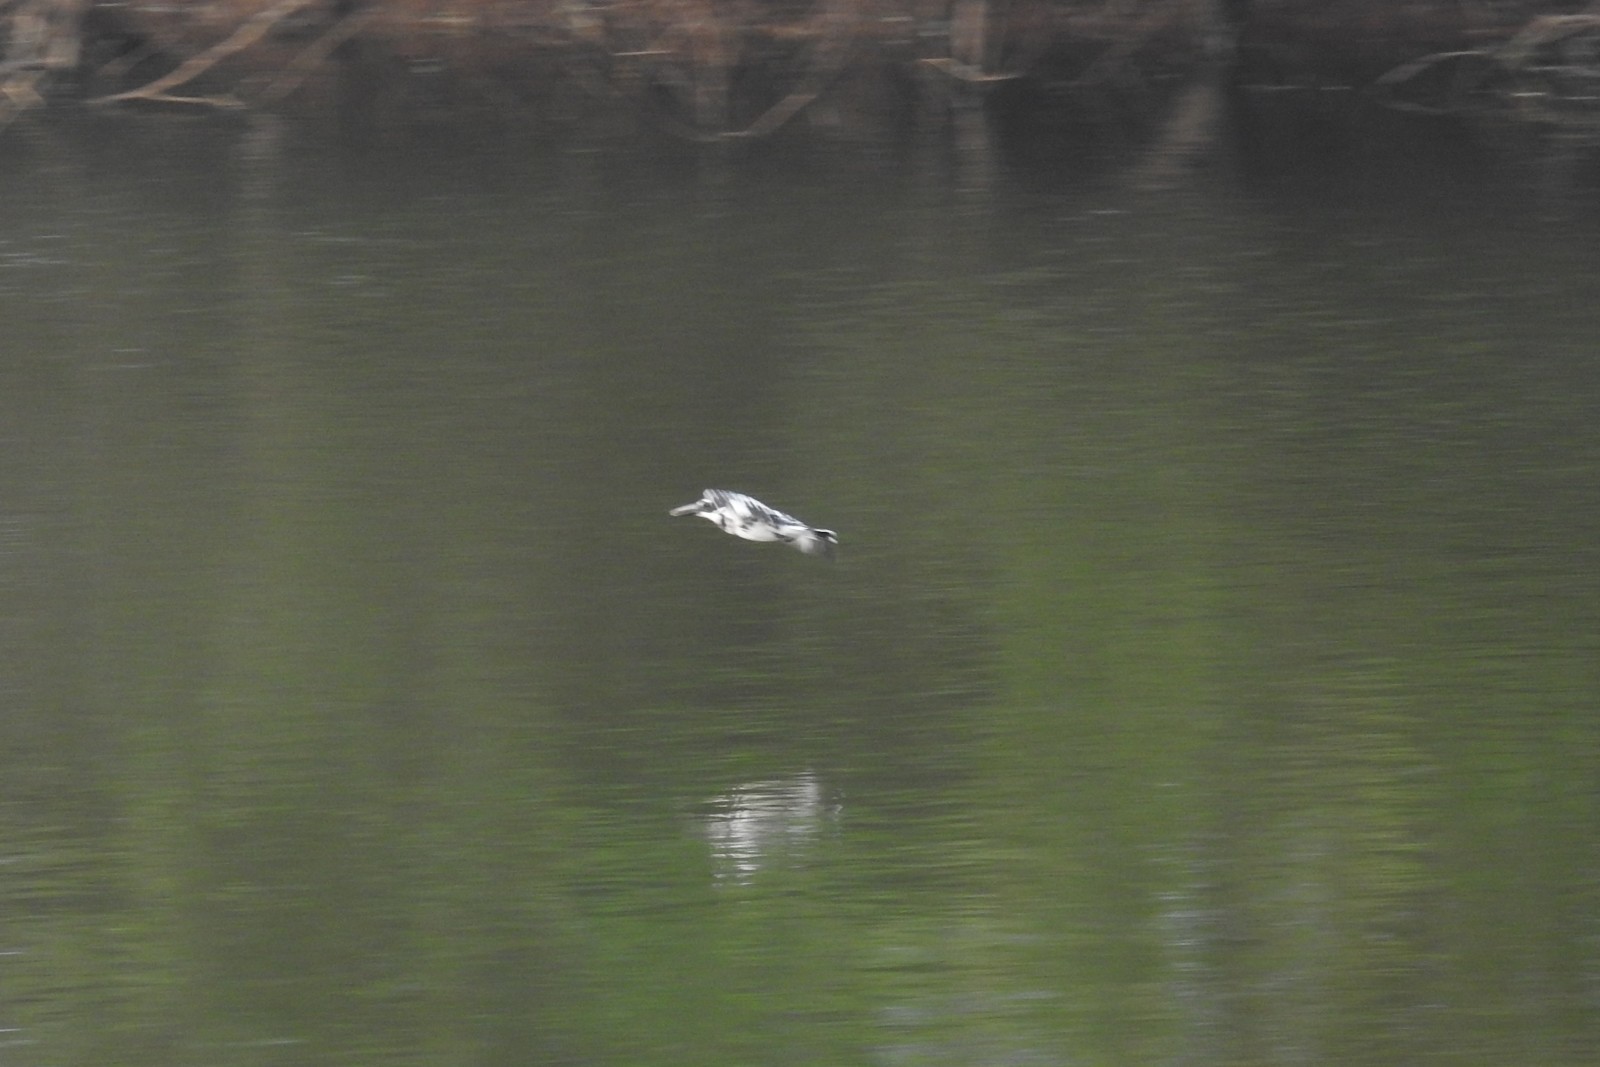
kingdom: Animalia
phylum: Chordata
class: Aves
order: Coraciiformes
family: Alcedinidae
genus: Ceryle
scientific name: Ceryle rudis
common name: Pied kingfisher
